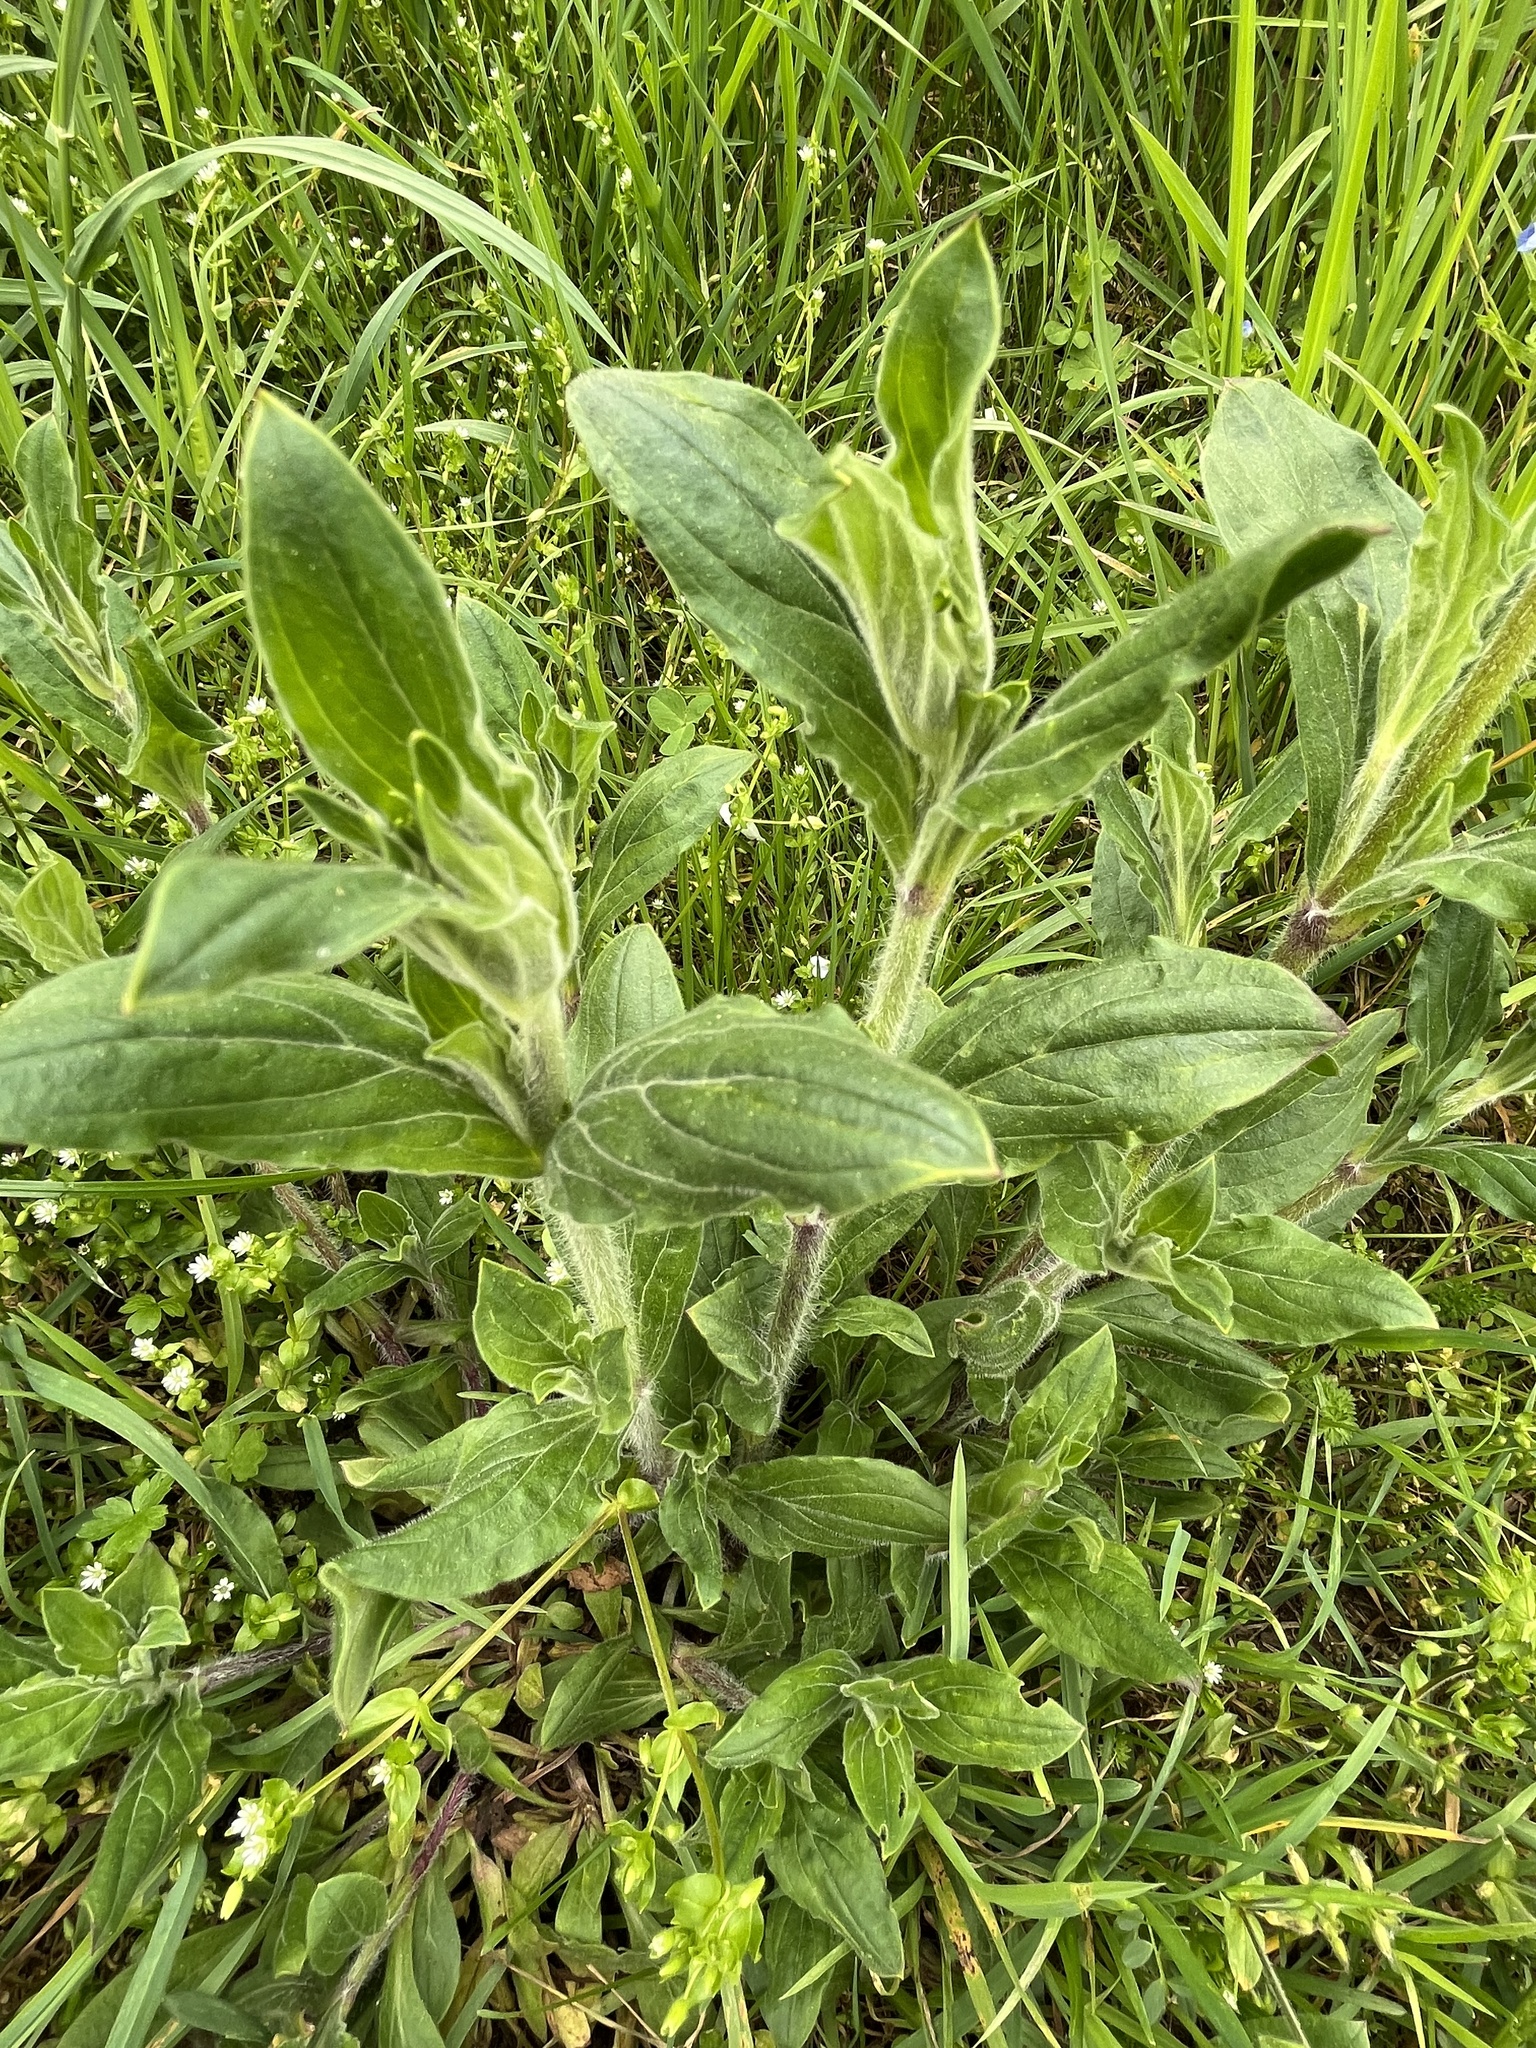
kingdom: Plantae
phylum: Tracheophyta
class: Magnoliopsida
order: Caryophyllales
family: Caryophyllaceae
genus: Silene
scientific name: Silene latifolia
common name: White campion
